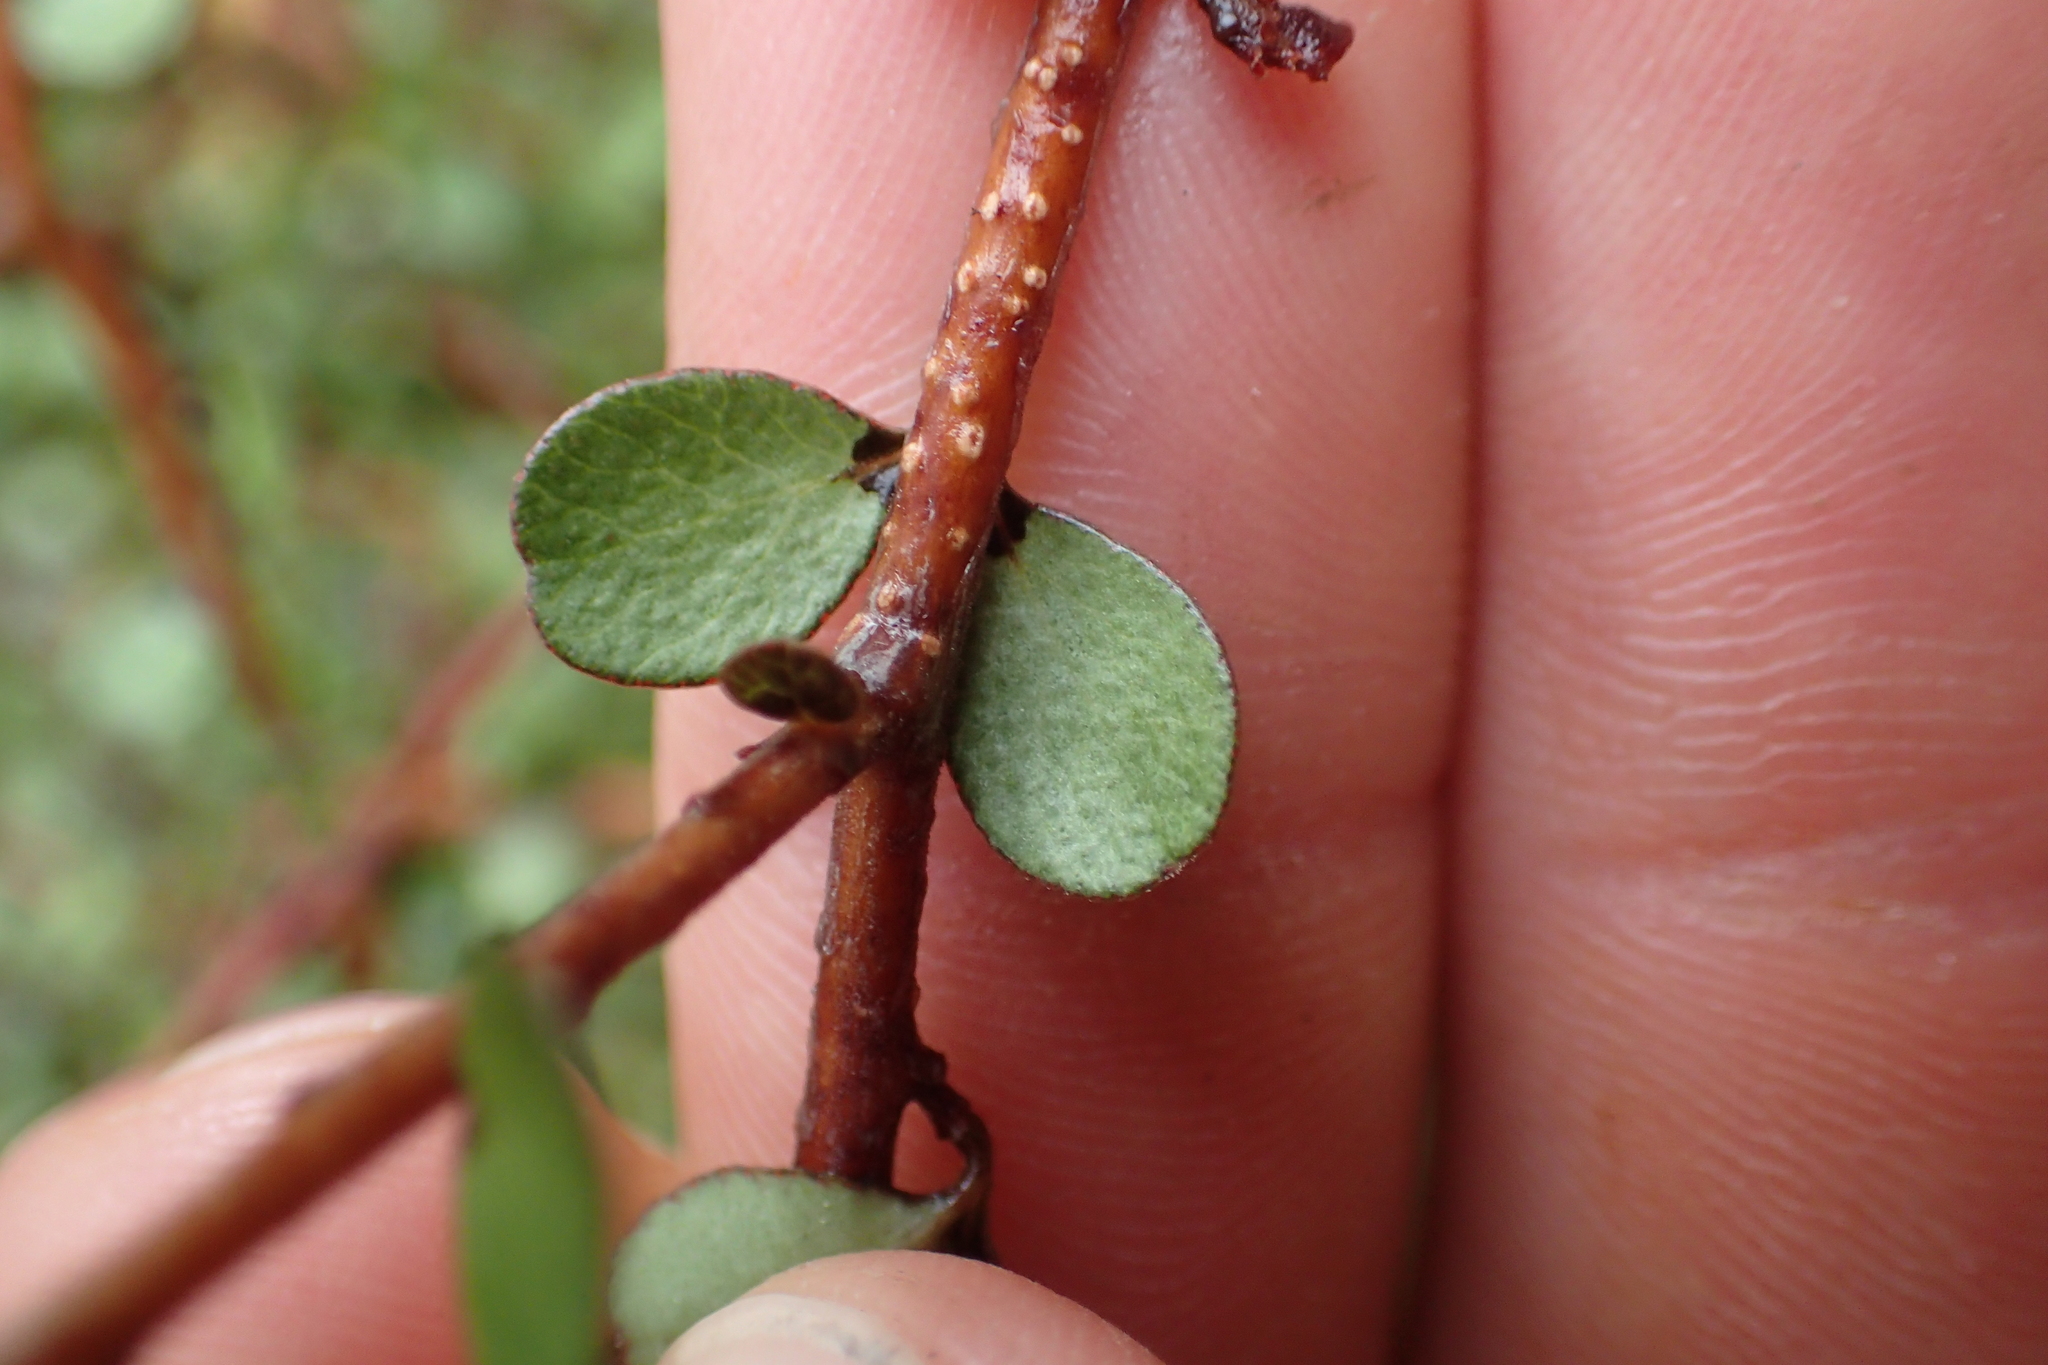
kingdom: Plantae
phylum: Tracheophyta
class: Magnoliopsida
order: Ericales
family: Primulaceae
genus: Myrsine
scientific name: Myrsine divaricata
